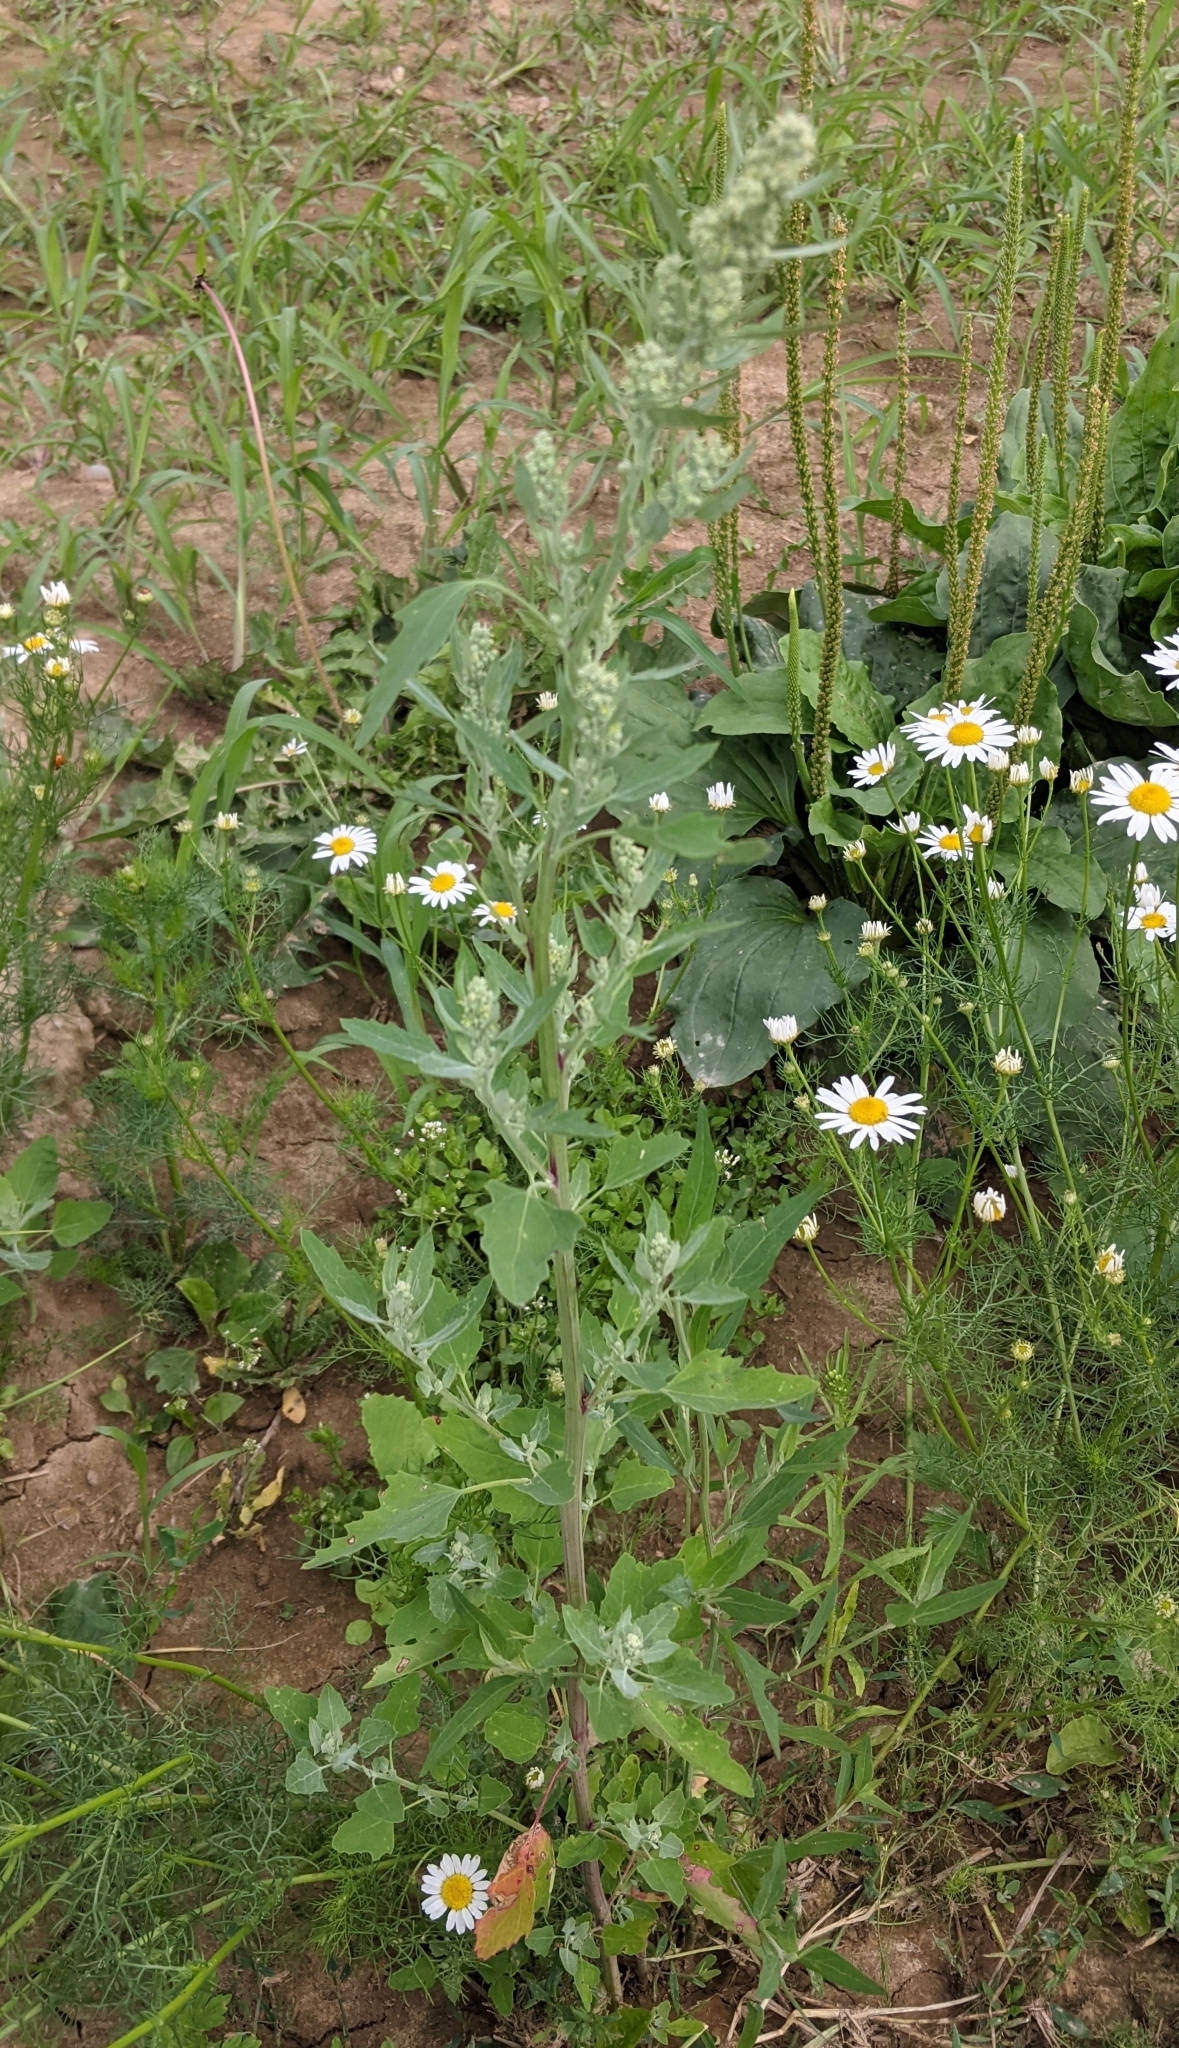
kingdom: Plantae
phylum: Tracheophyta
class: Magnoliopsida
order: Caryophyllales
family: Amaranthaceae
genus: Chenopodium
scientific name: Chenopodium album
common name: Fat-hen
